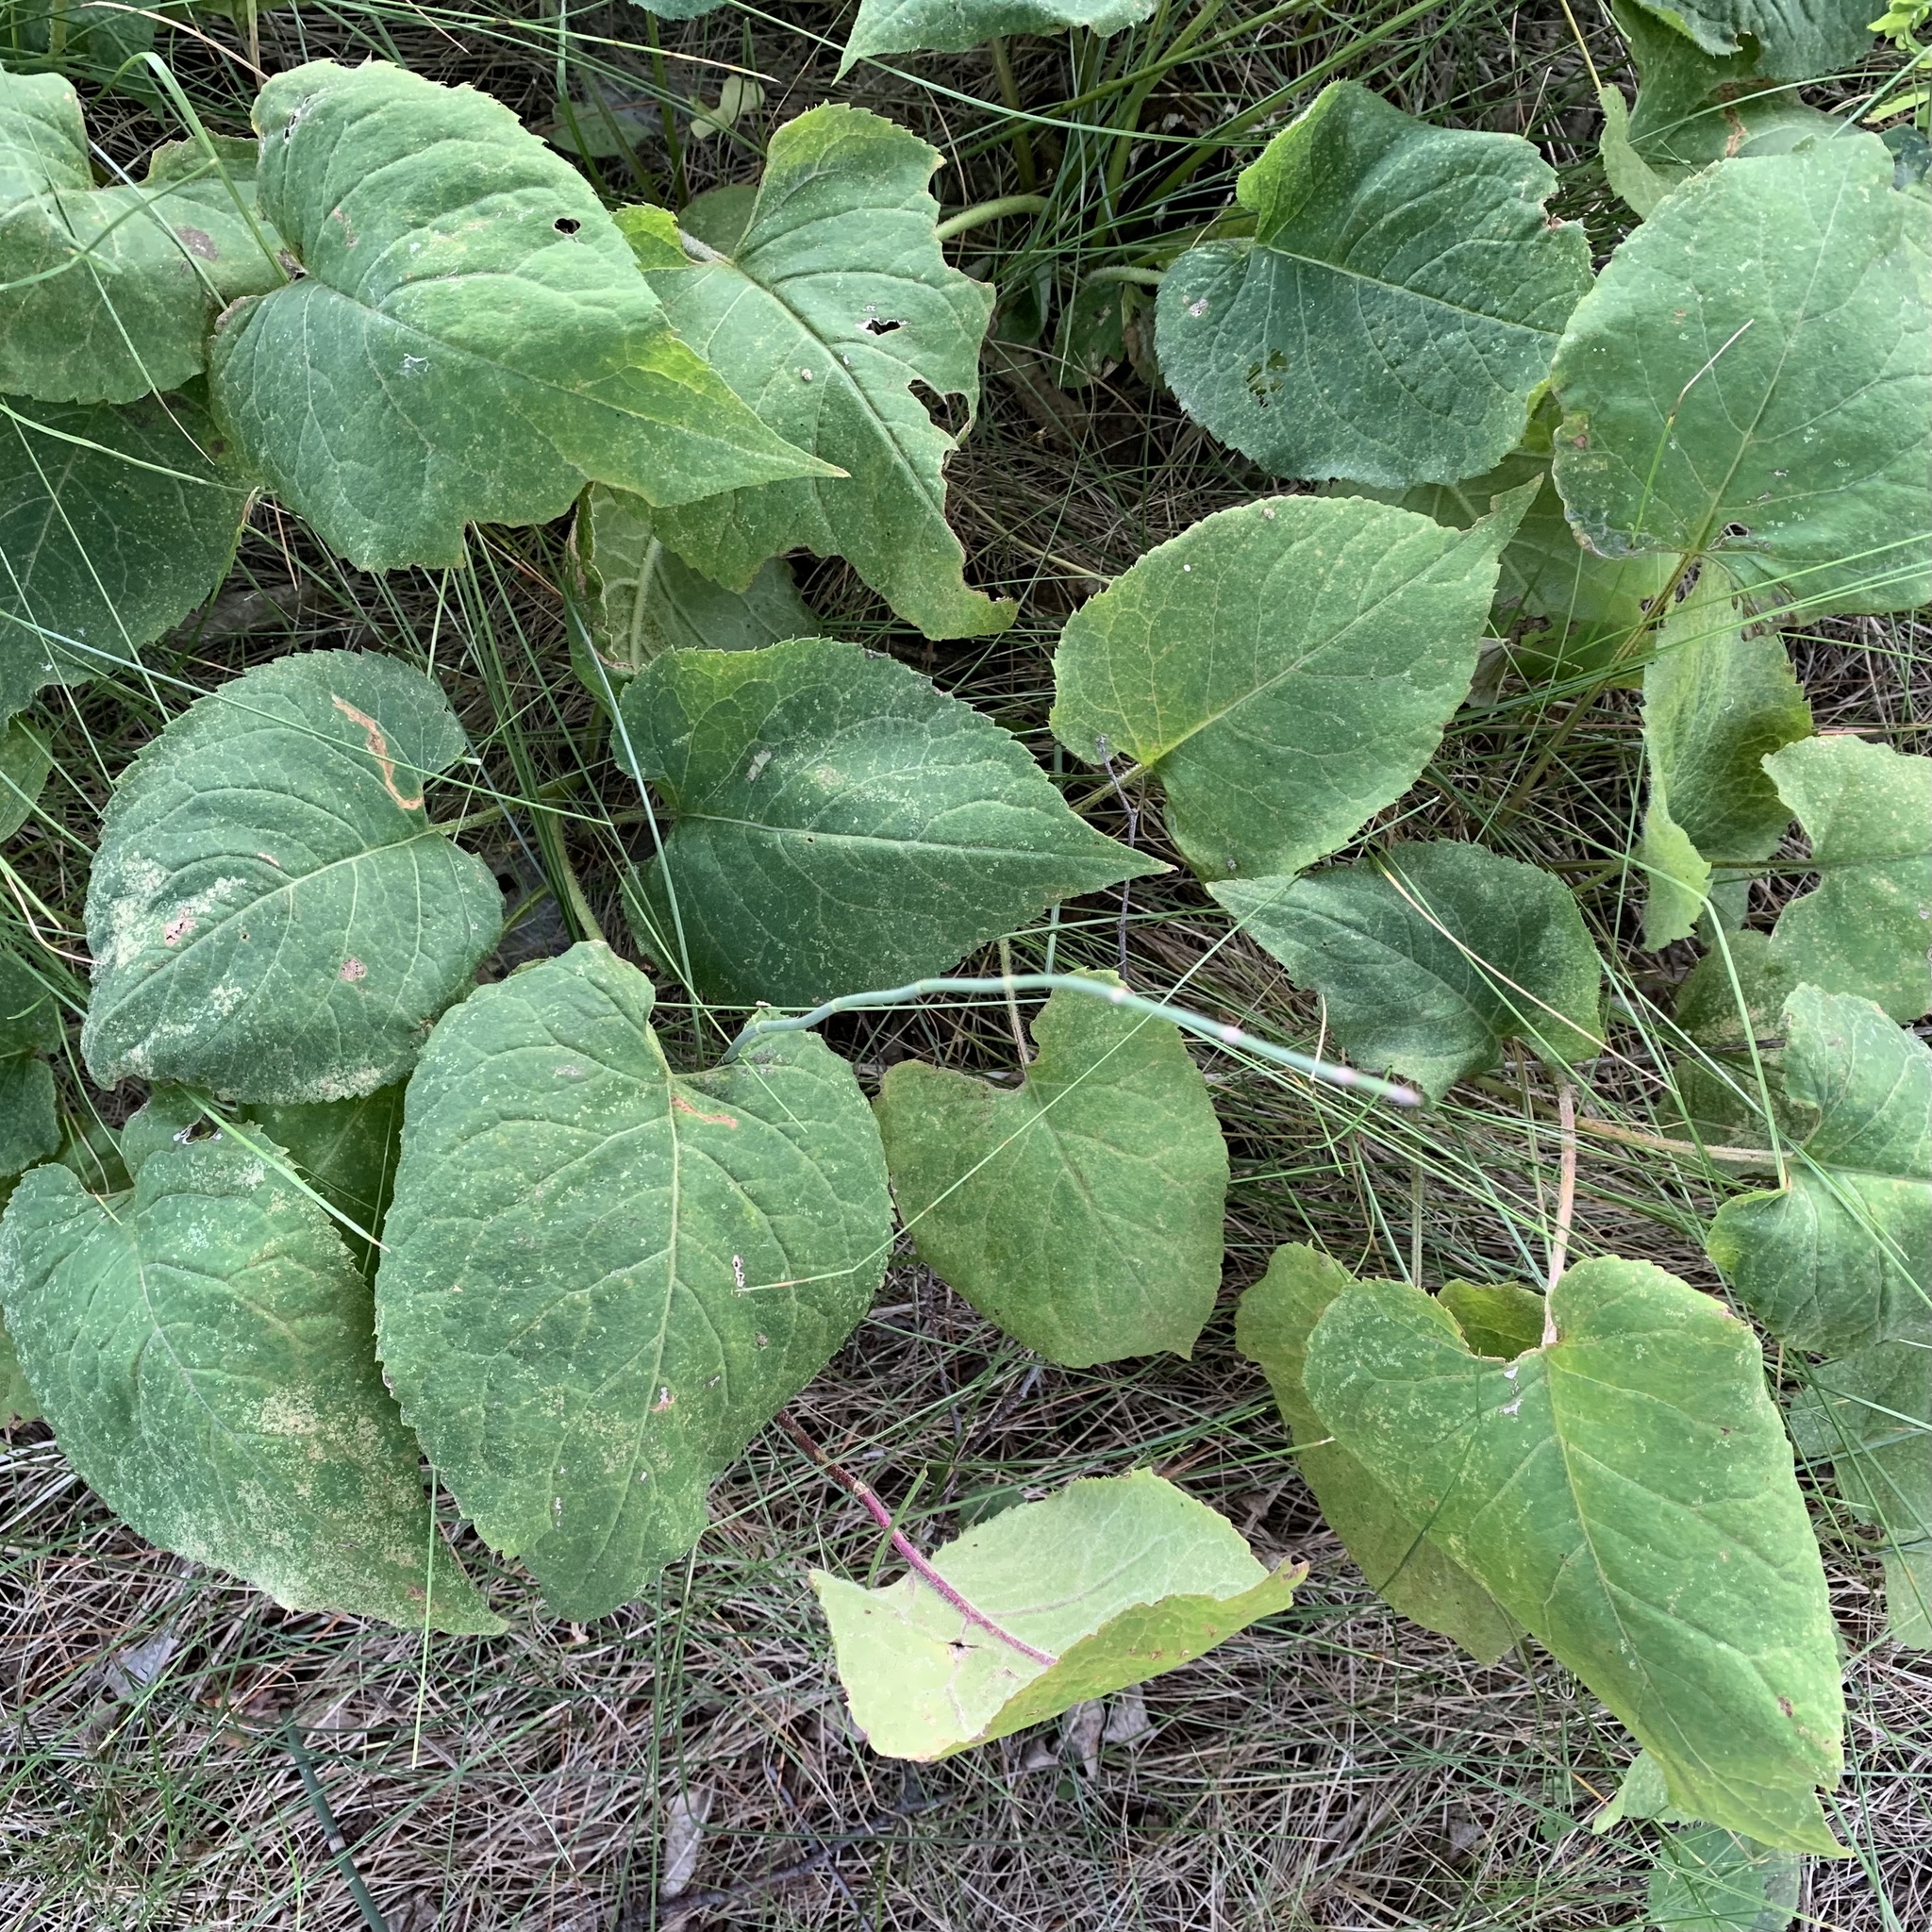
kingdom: Plantae
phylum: Tracheophyta
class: Magnoliopsida
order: Asterales
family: Asteraceae
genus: Eurybia
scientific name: Eurybia macrophylla
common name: Big-leaved aster
